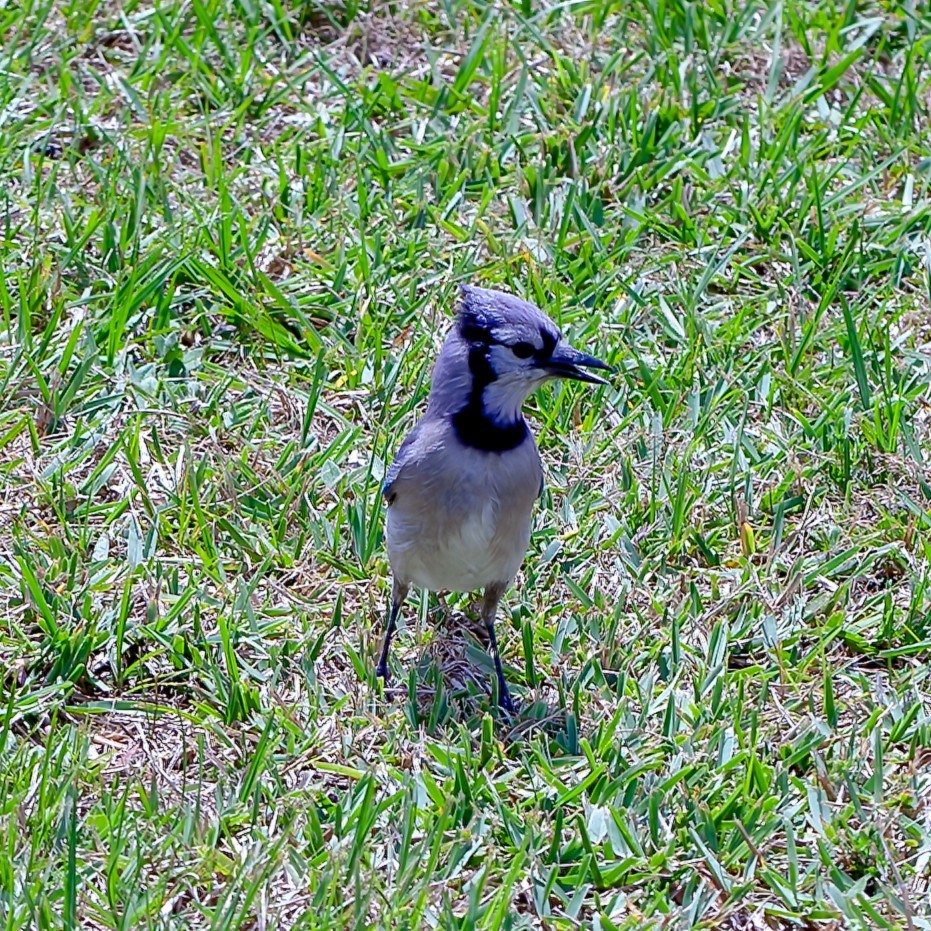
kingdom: Animalia
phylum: Chordata
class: Aves
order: Passeriformes
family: Corvidae
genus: Cyanocitta
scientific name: Cyanocitta cristata
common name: Blue jay
